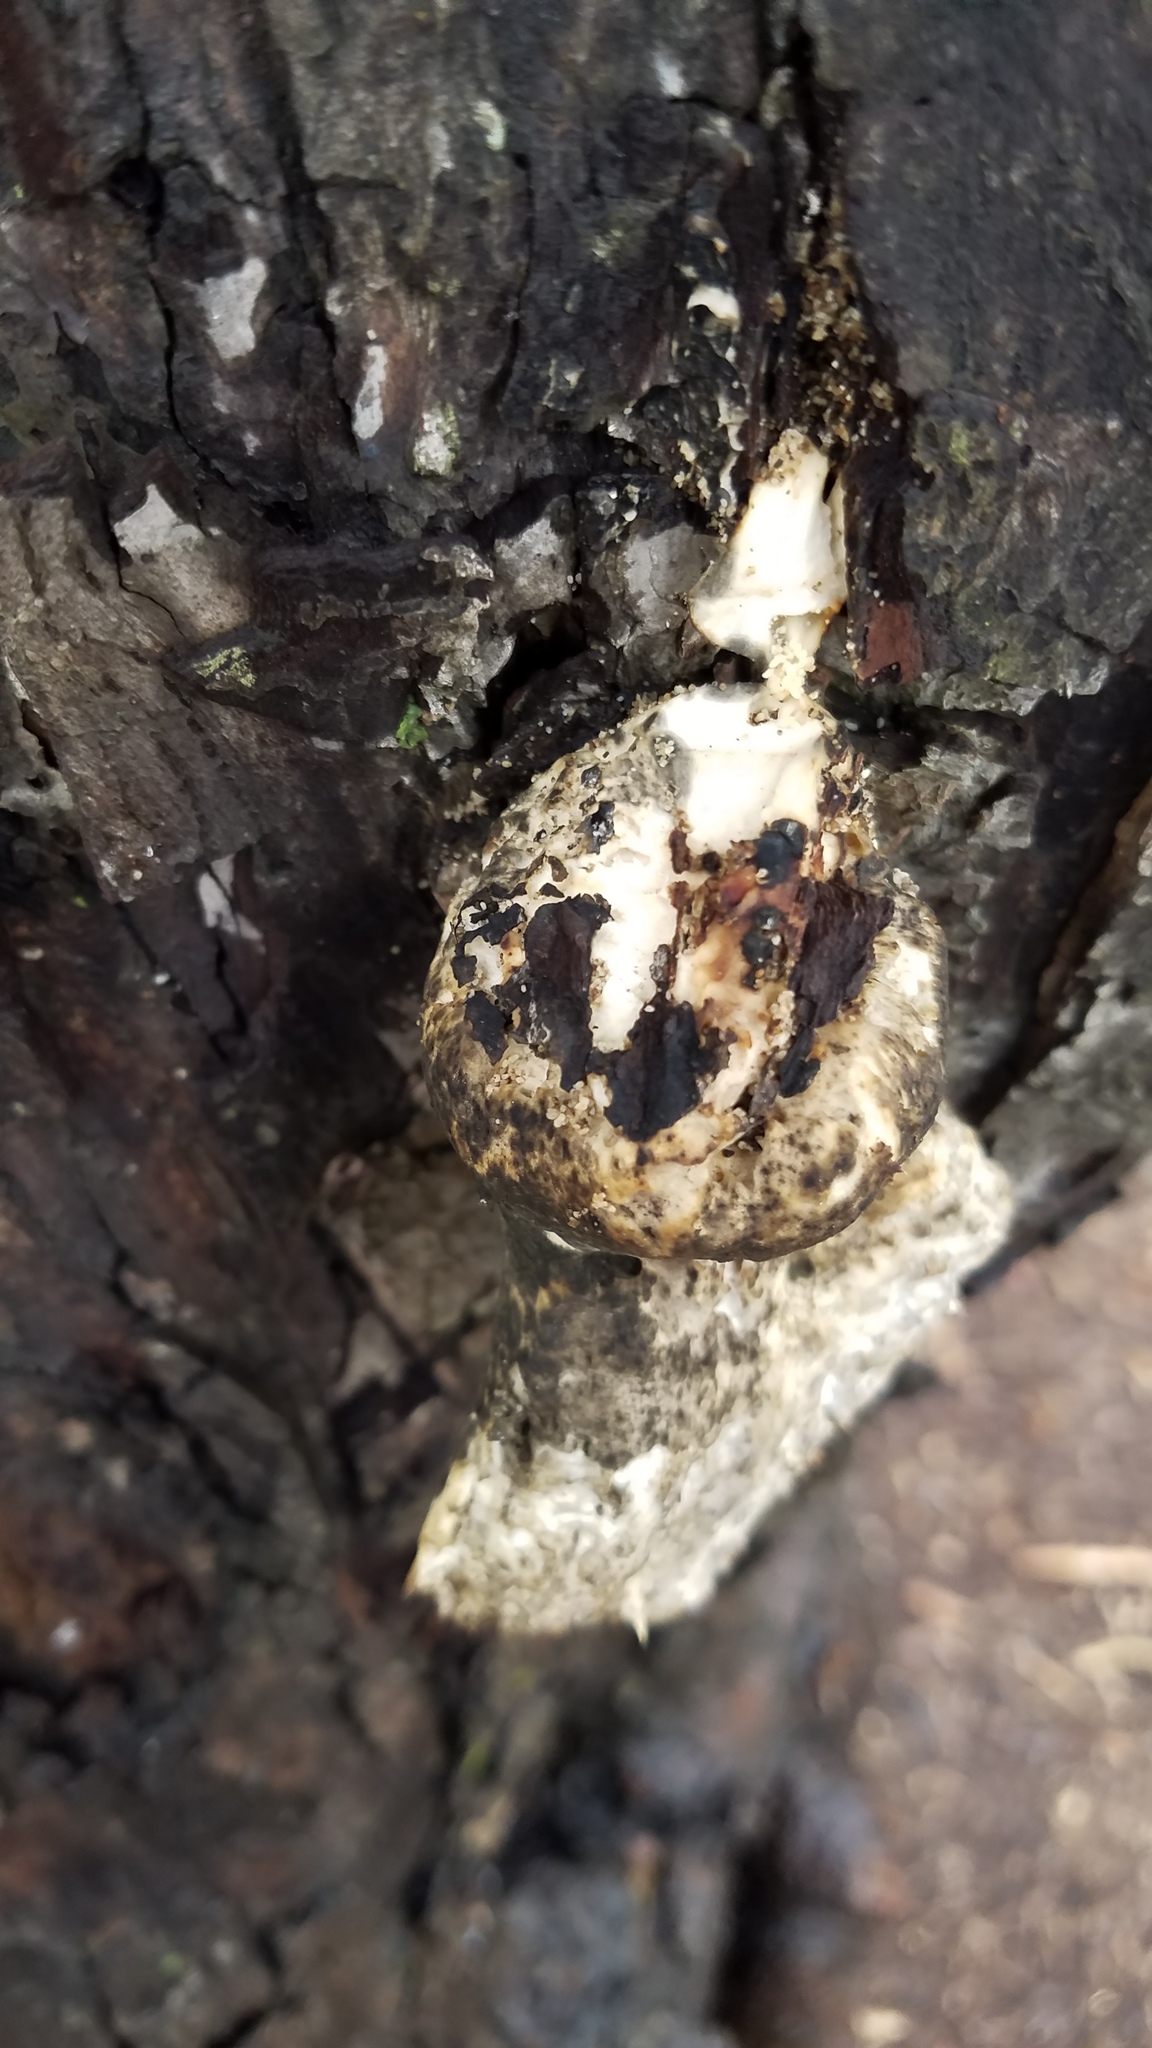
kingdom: Fungi
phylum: Basidiomycota
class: Agaricomycetes
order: Polyporales
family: Polyporaceae
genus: Cerioporus
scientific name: Cerioporus squamosus
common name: Dryad's saddle
